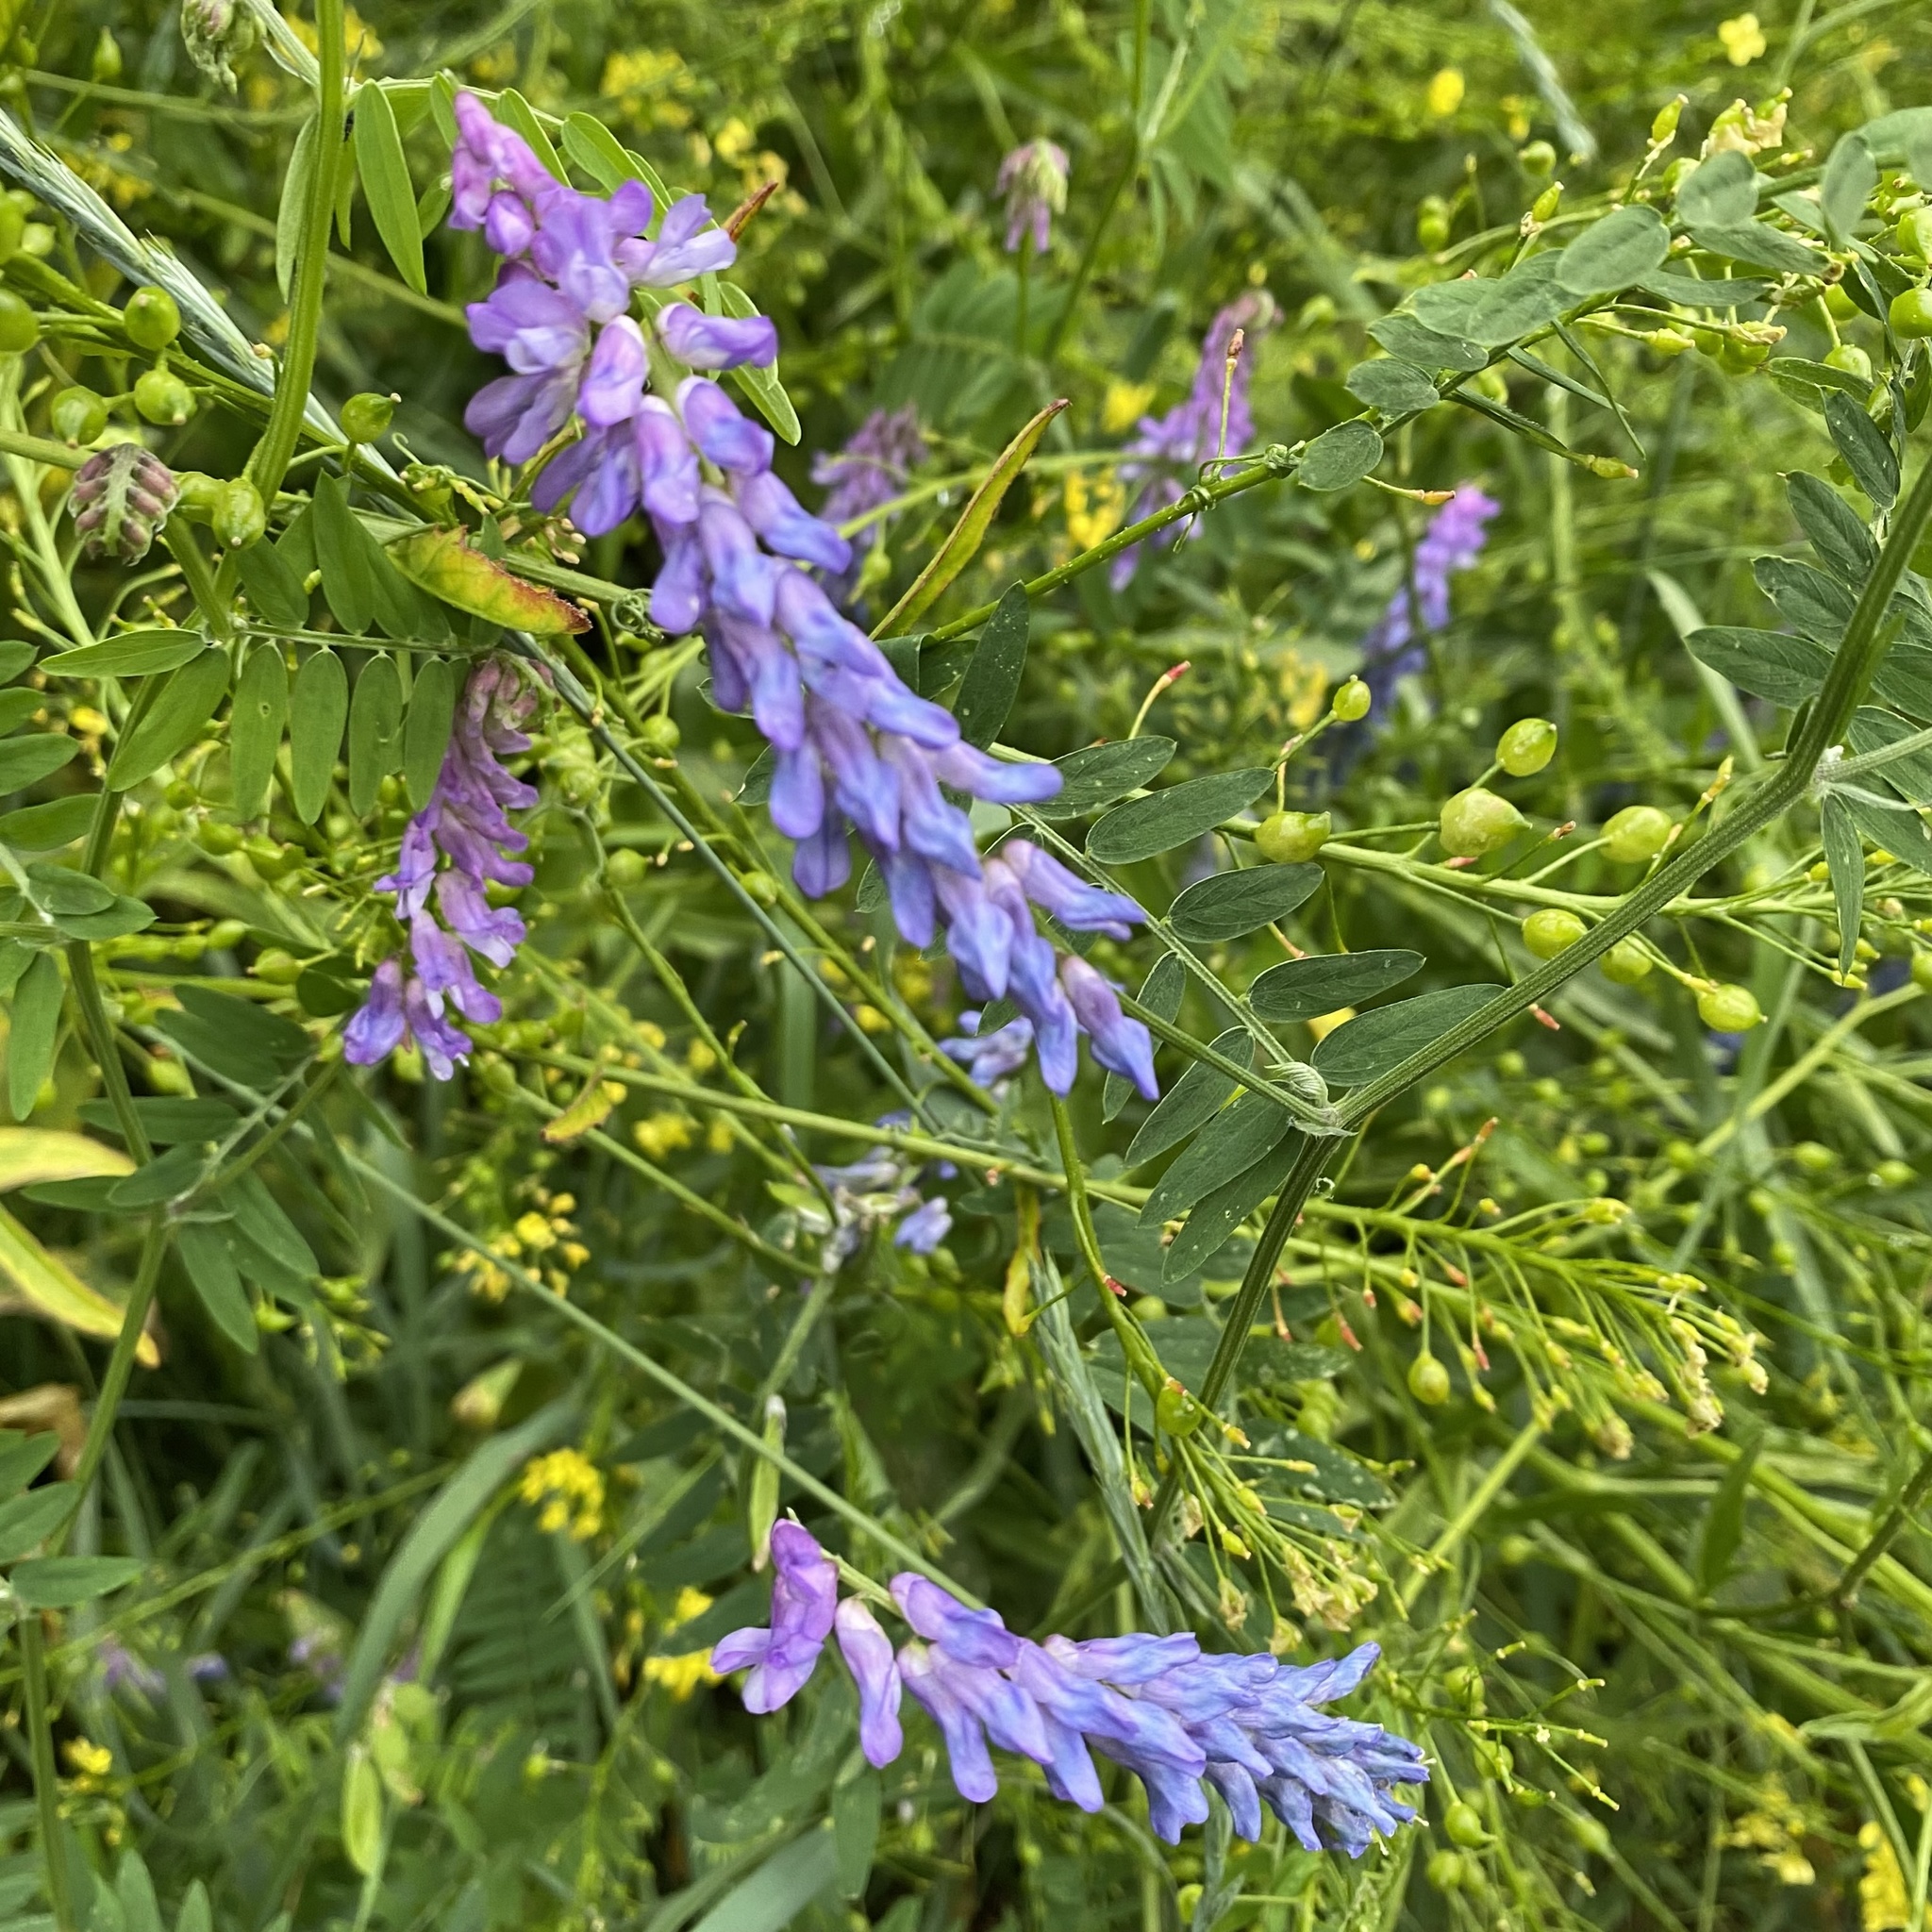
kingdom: Plantae
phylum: Tracheophyta
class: Magnoliopsida
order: Fabales
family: Fabaceae
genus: Vicia
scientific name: Vicia cracca
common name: Bird vetch
